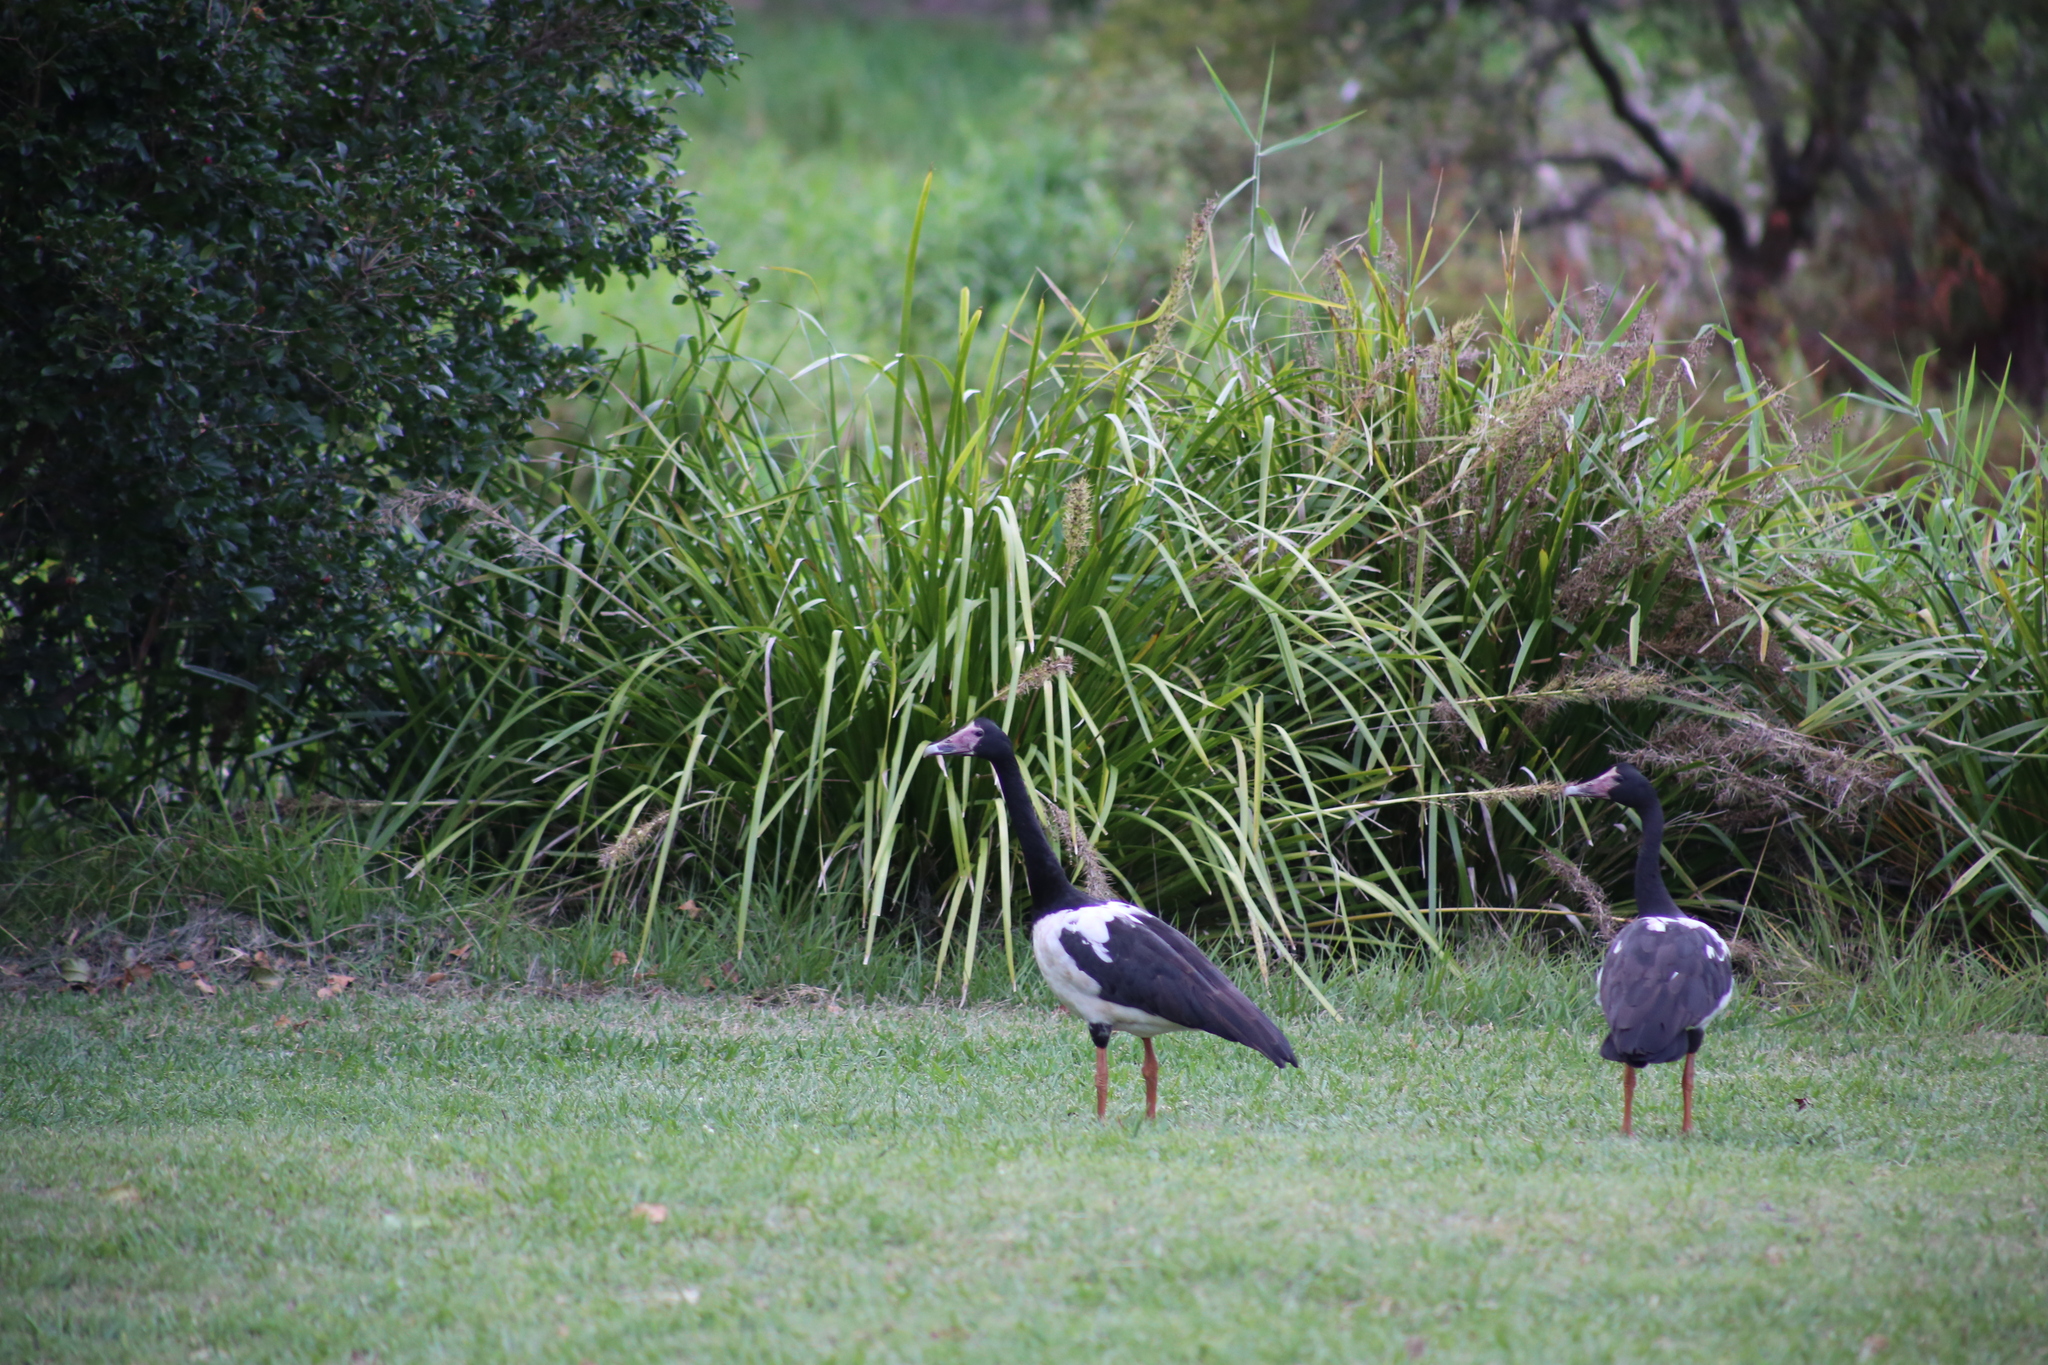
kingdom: Animalia
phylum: Chordata
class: Aves
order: Anseriformes
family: Anseranatidae
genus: Anseranas
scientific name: Anseranas semipalmata
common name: Magpie goose
